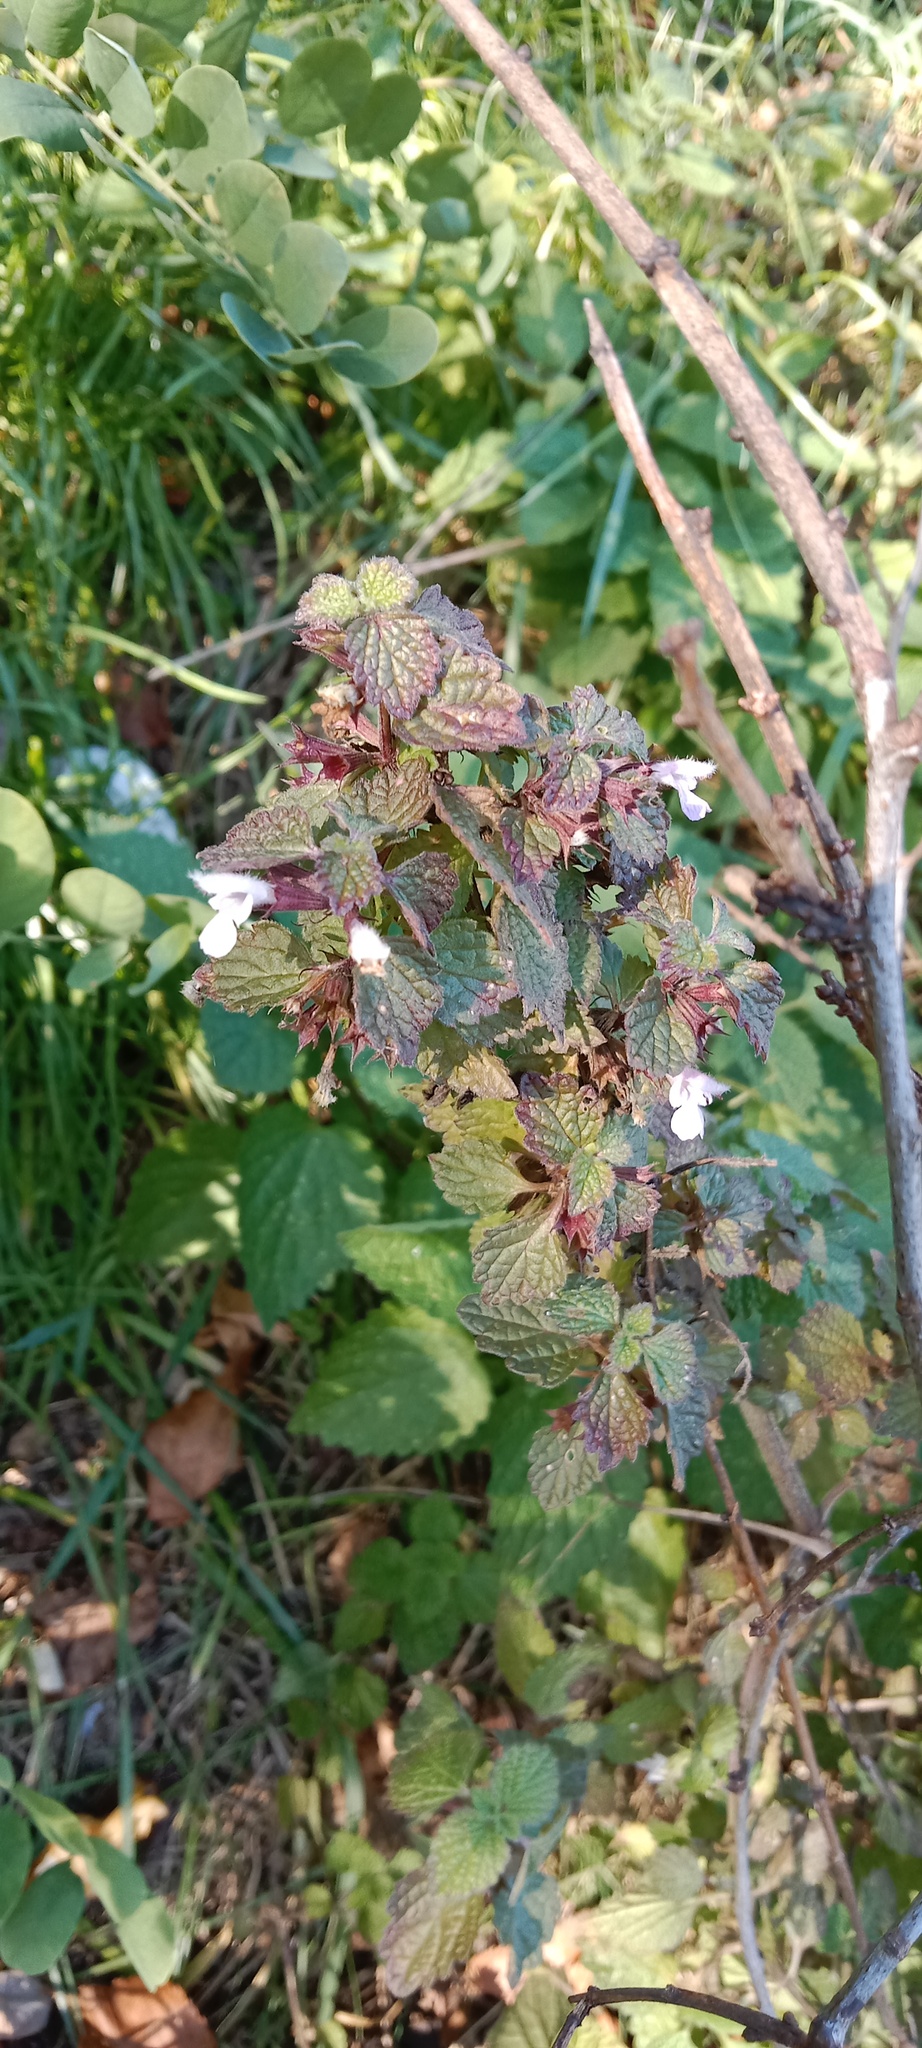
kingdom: Plantae
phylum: Tracheophyta
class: Magnoliopsida
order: Lamiales
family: Lamiaceae
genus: Ballota
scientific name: Ballota nigra
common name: Black horehound
